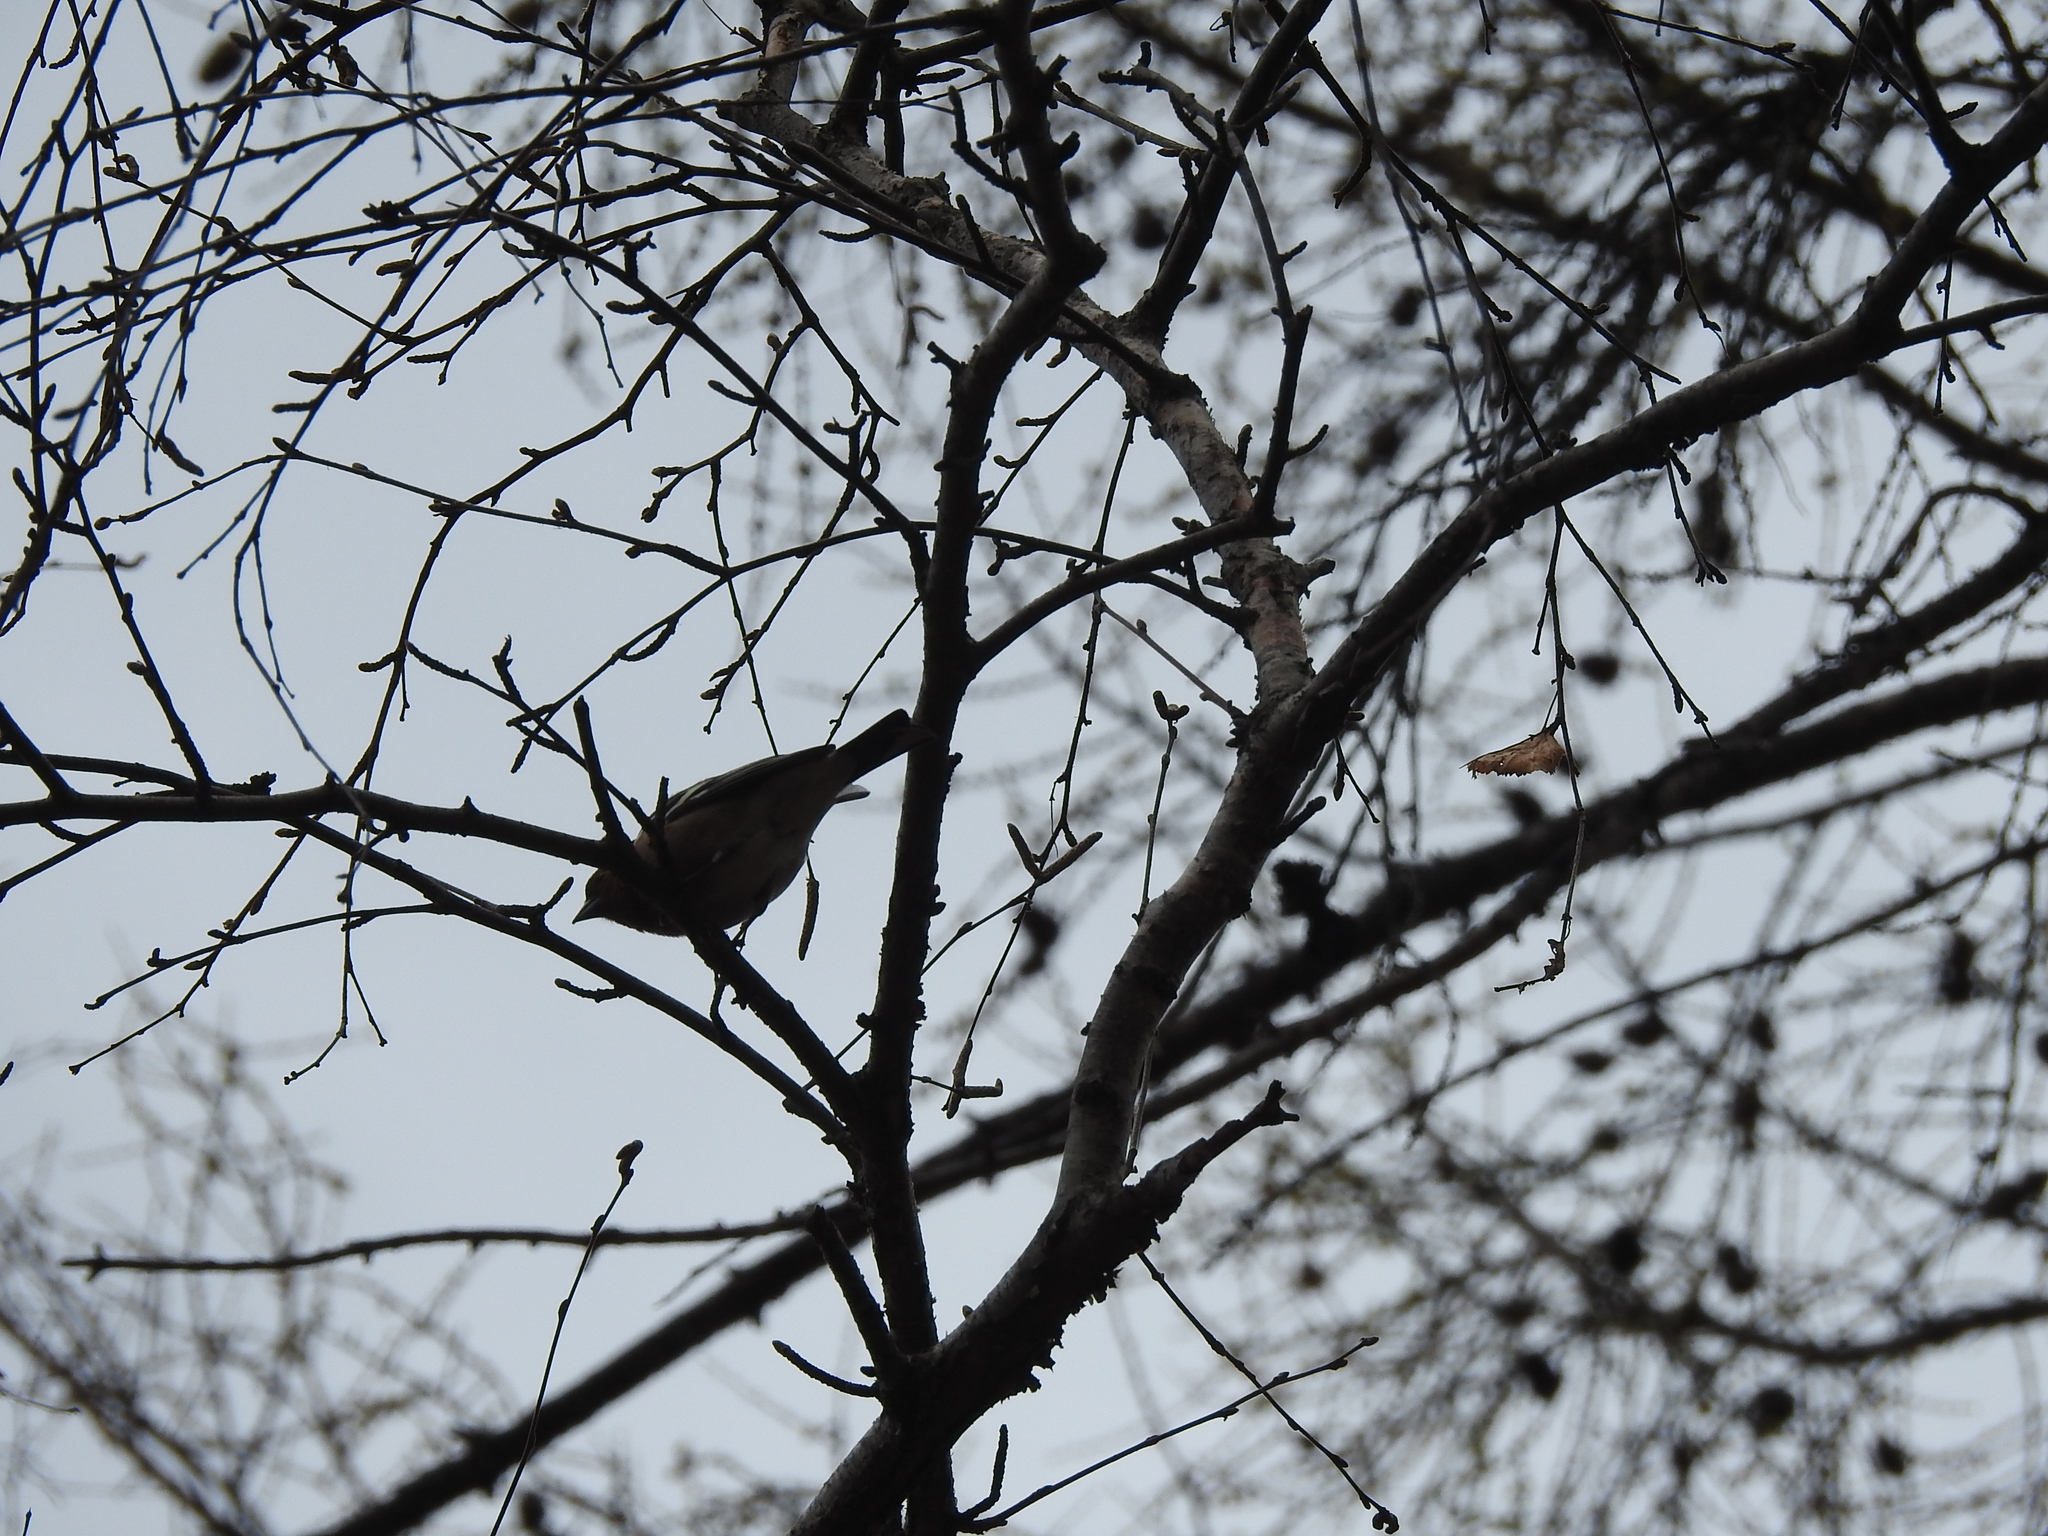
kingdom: Animalia
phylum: Chordata
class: Aves
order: Passeriformes
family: Fringillidae
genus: Fringilla
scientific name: Fringilla coelebs
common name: Common chaffinch
